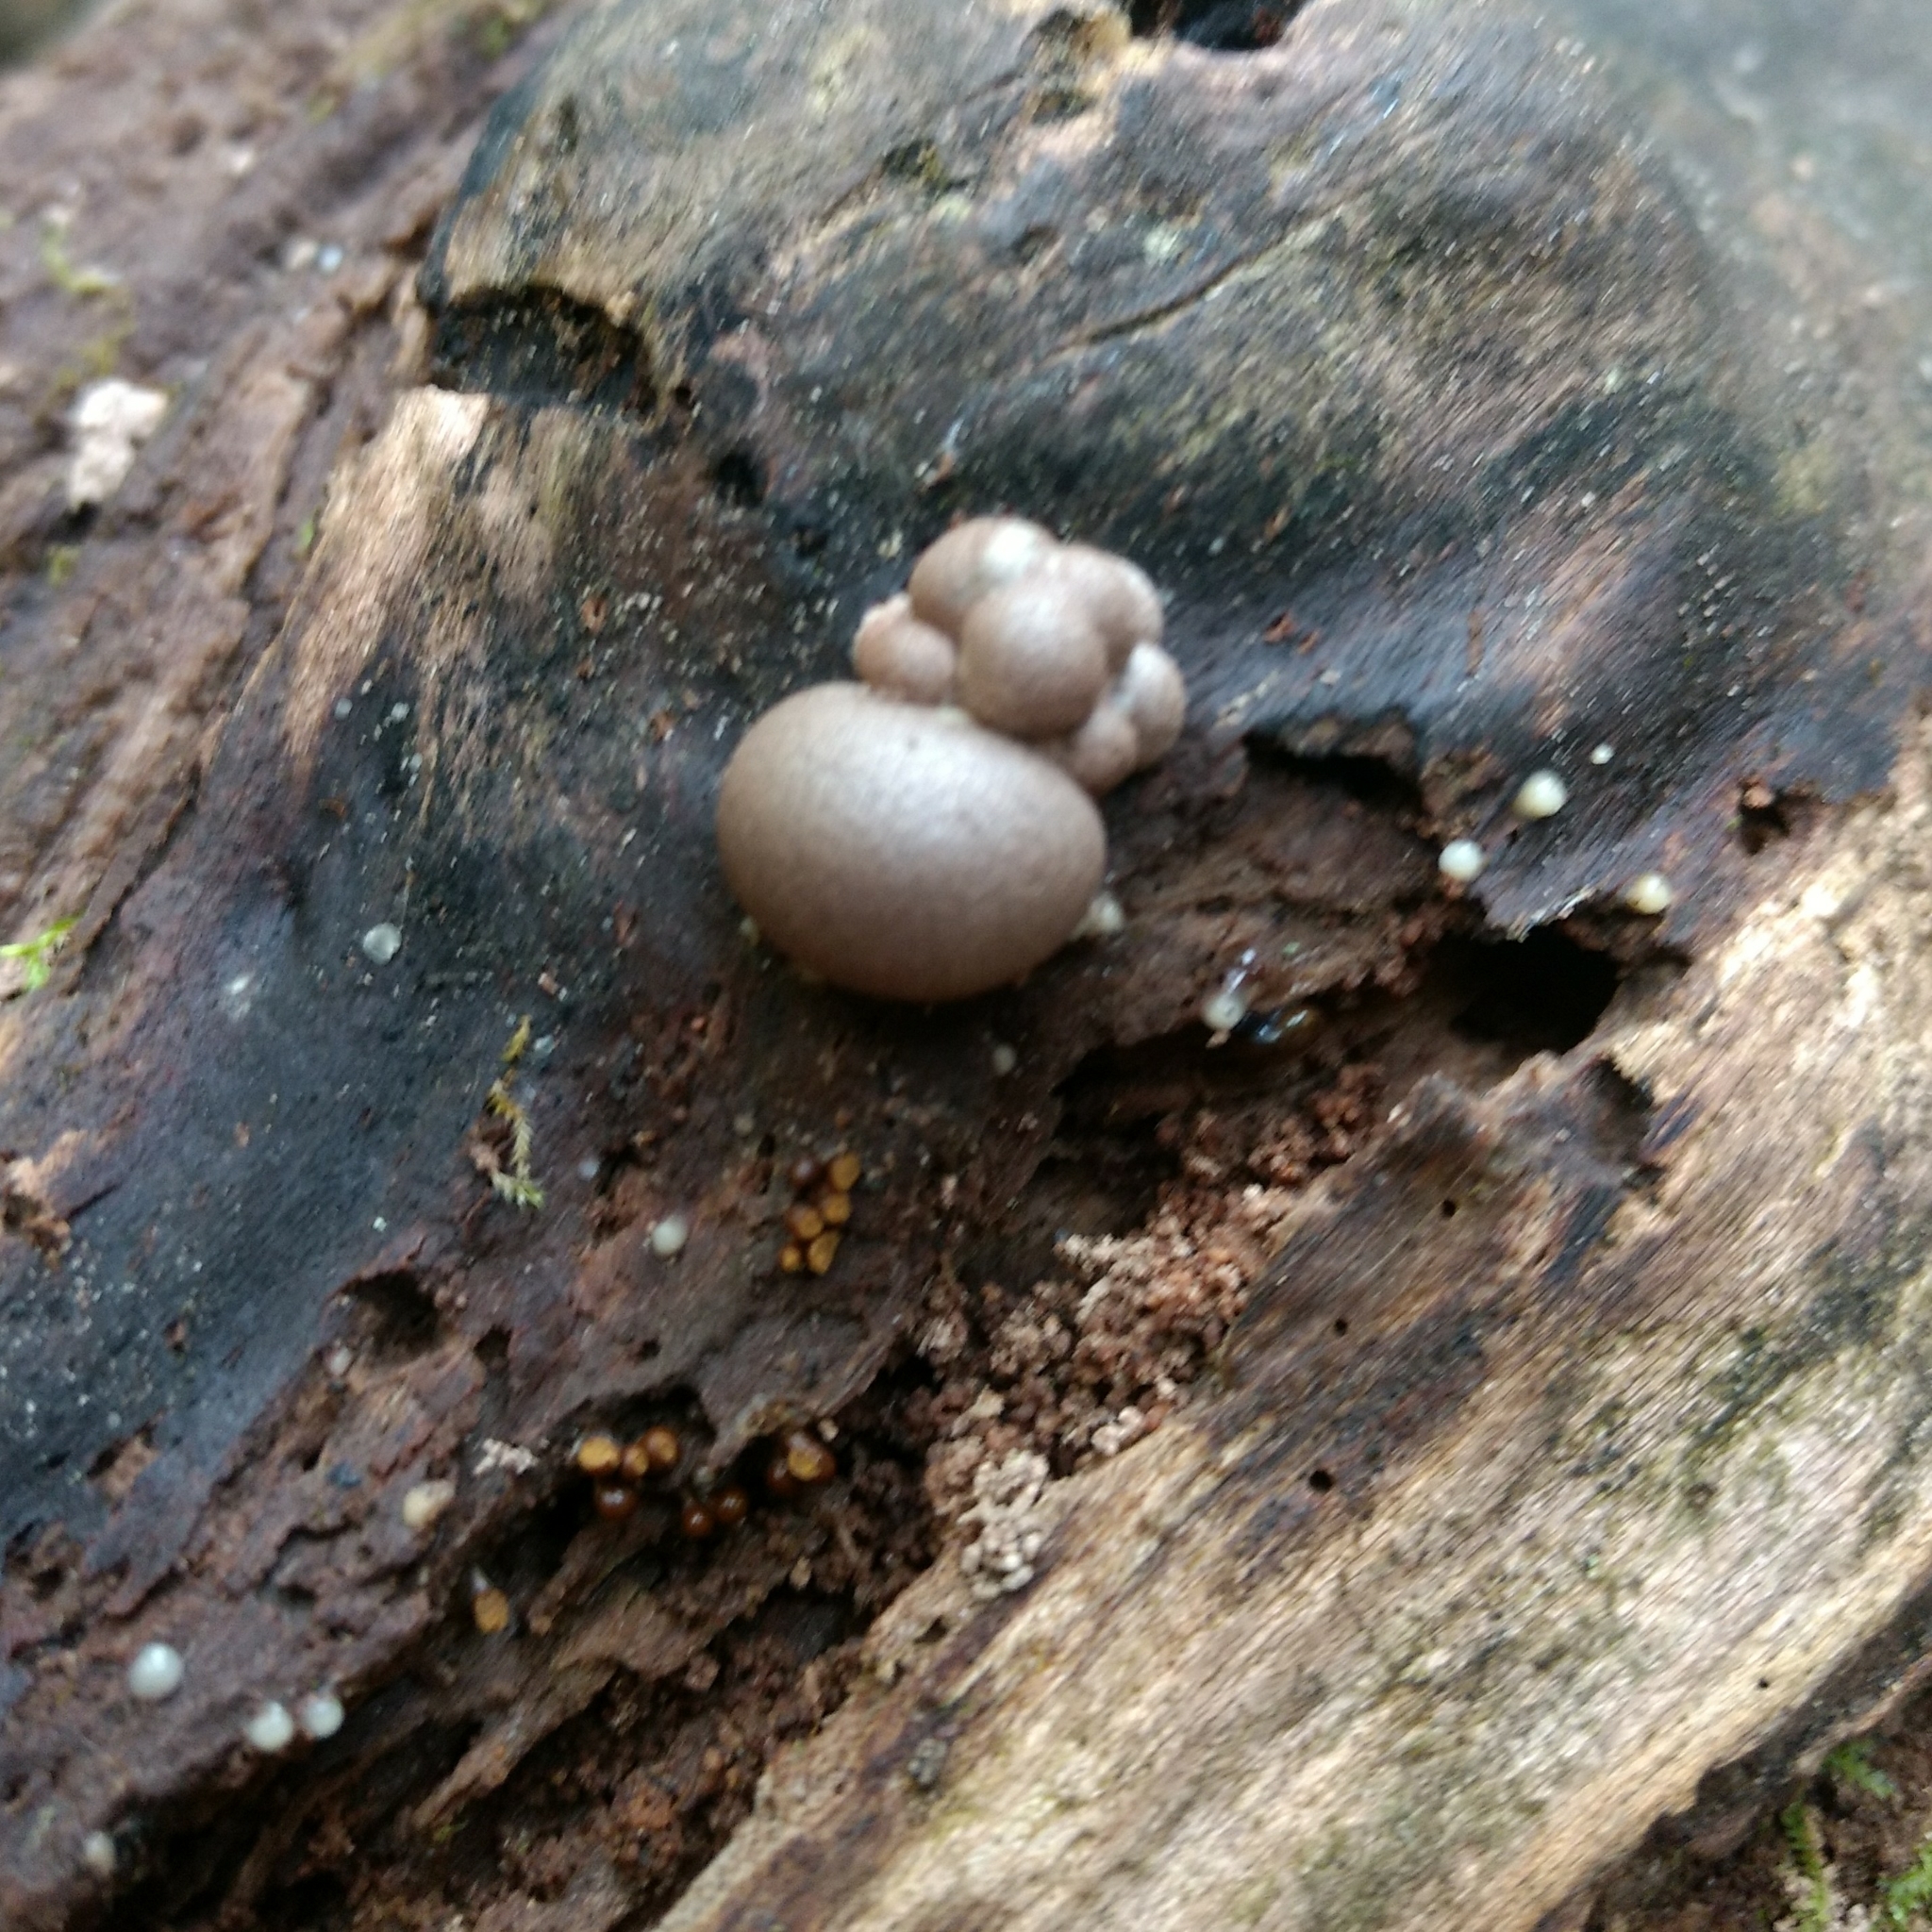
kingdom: Protozoa
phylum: Mycetozoa
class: Myxomycetes
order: Cribrariales
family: Tubiferaceae
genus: Lycogala
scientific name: Lycogala epidendrum
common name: Wolf's milk
